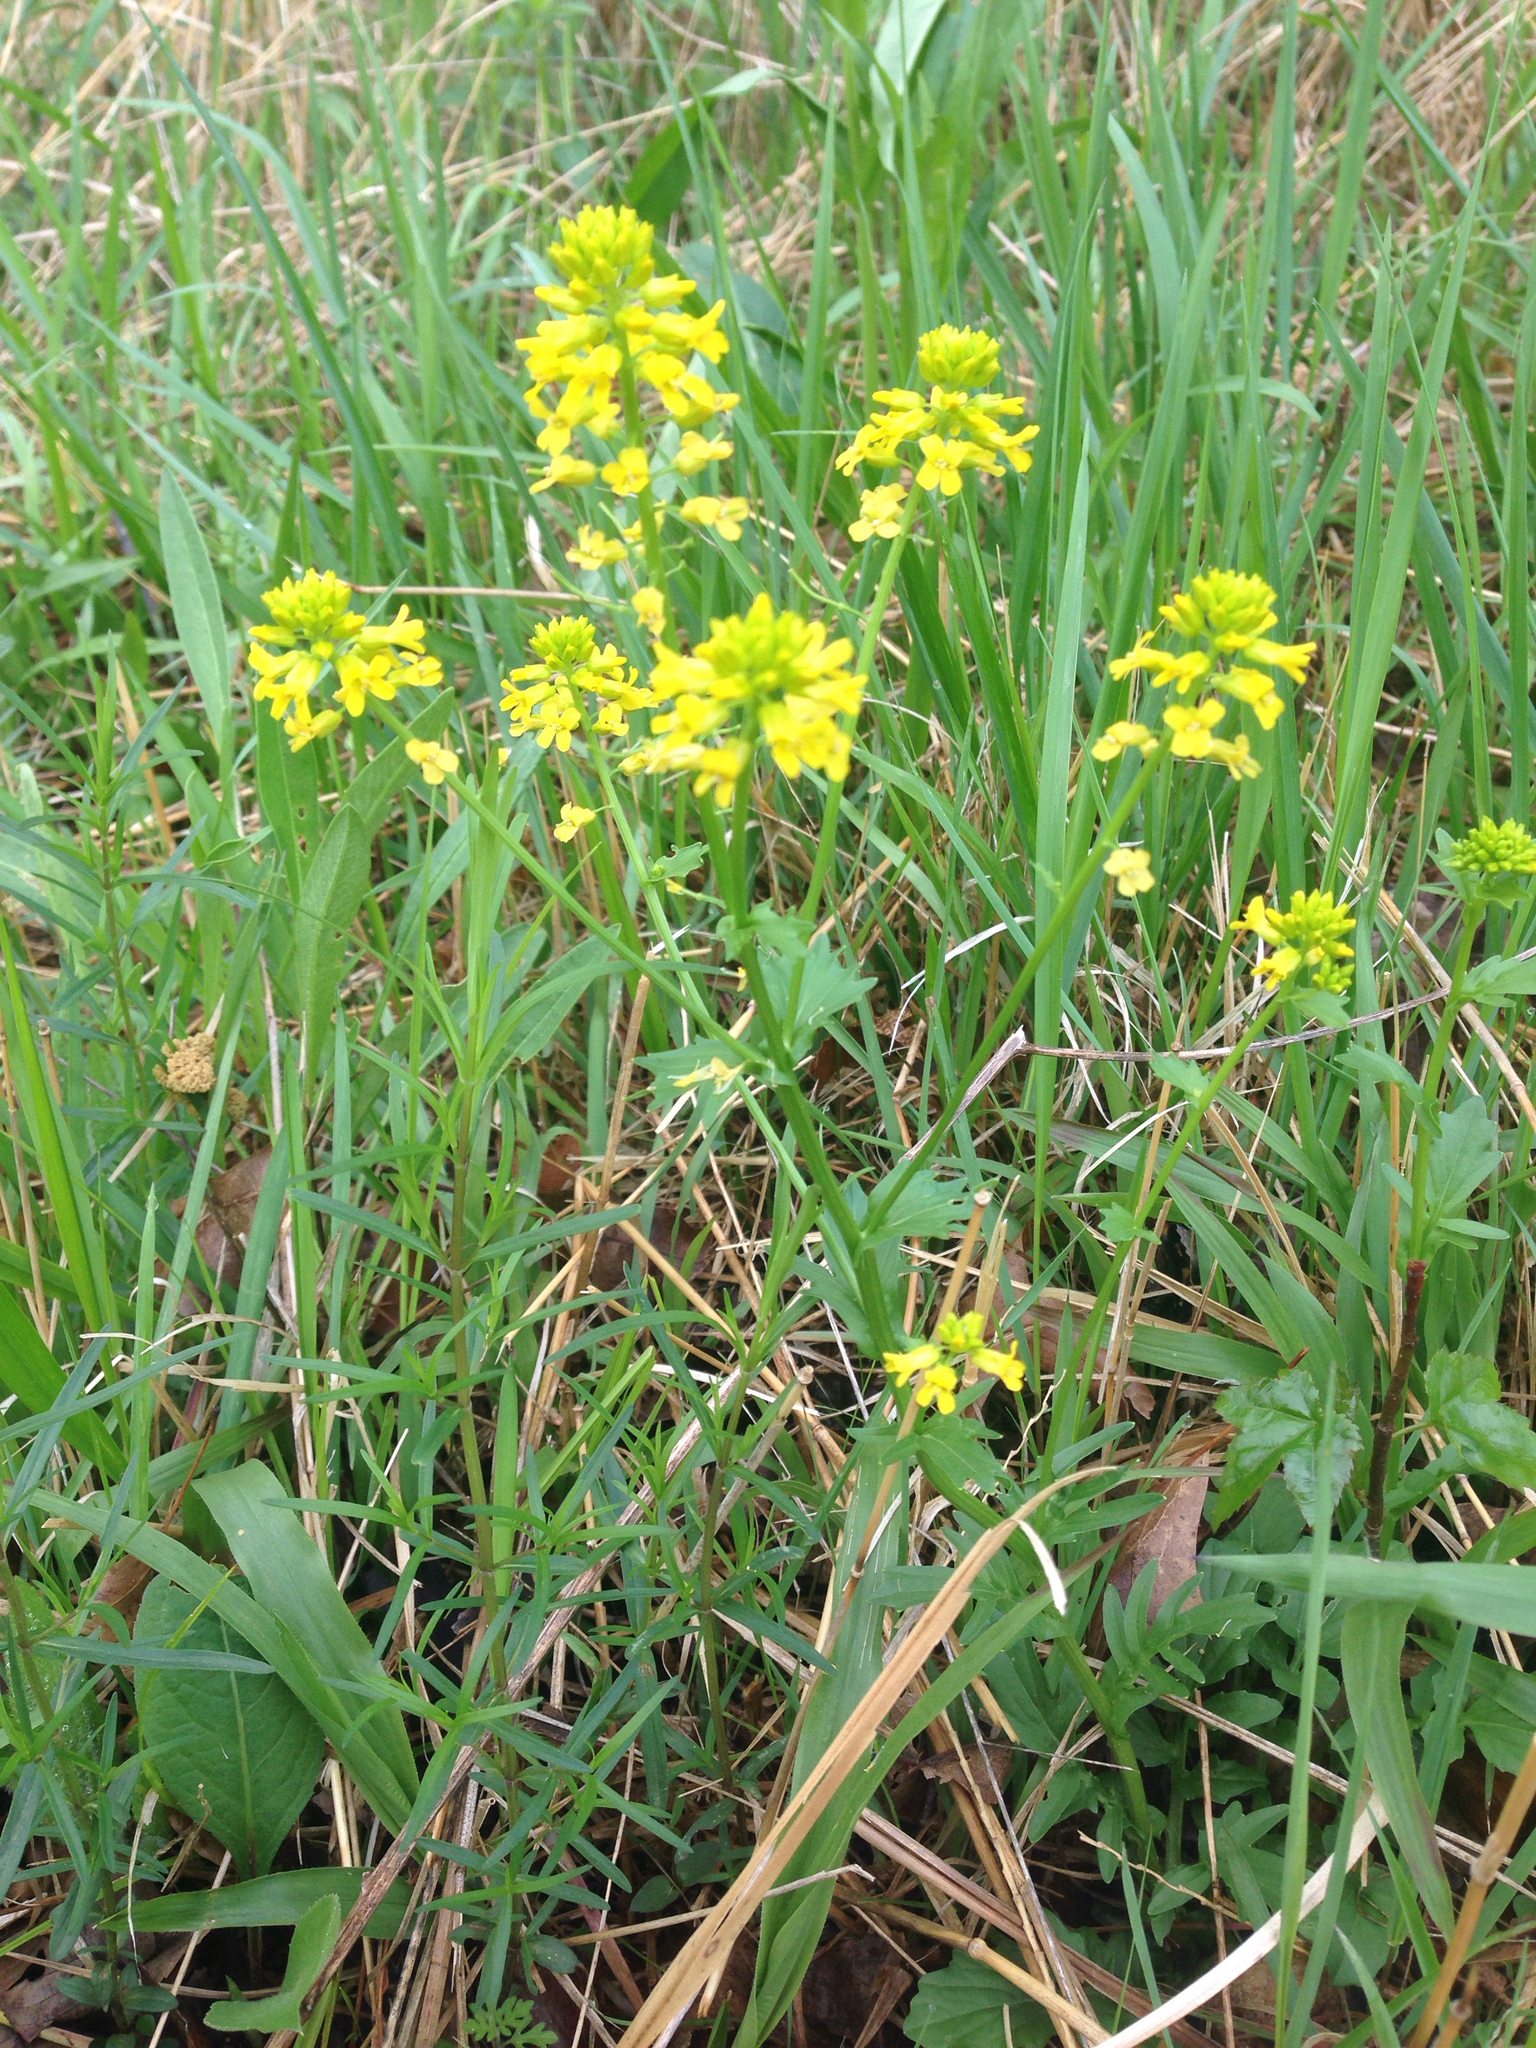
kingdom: Plantae
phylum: Tracheophyta
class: Magnoliopsida
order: Brassicales
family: Brassicaceae
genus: Barbarea
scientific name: Barbarea vulgaris
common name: Cressy-greens
